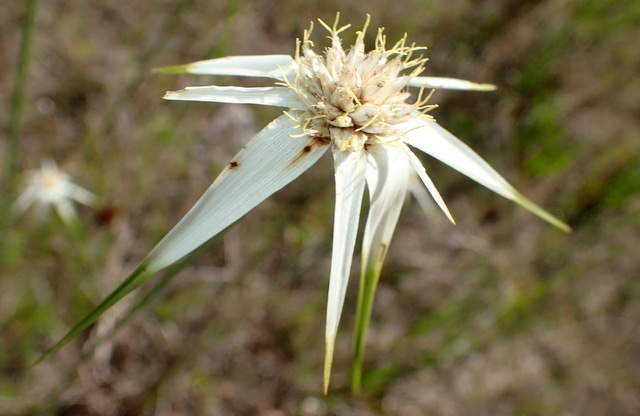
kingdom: Plantae
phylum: Tracheophyta
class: Liliopsida
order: Poales
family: Cyperaceae
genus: Rhynchospora
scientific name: Rhynchospora latifolia
